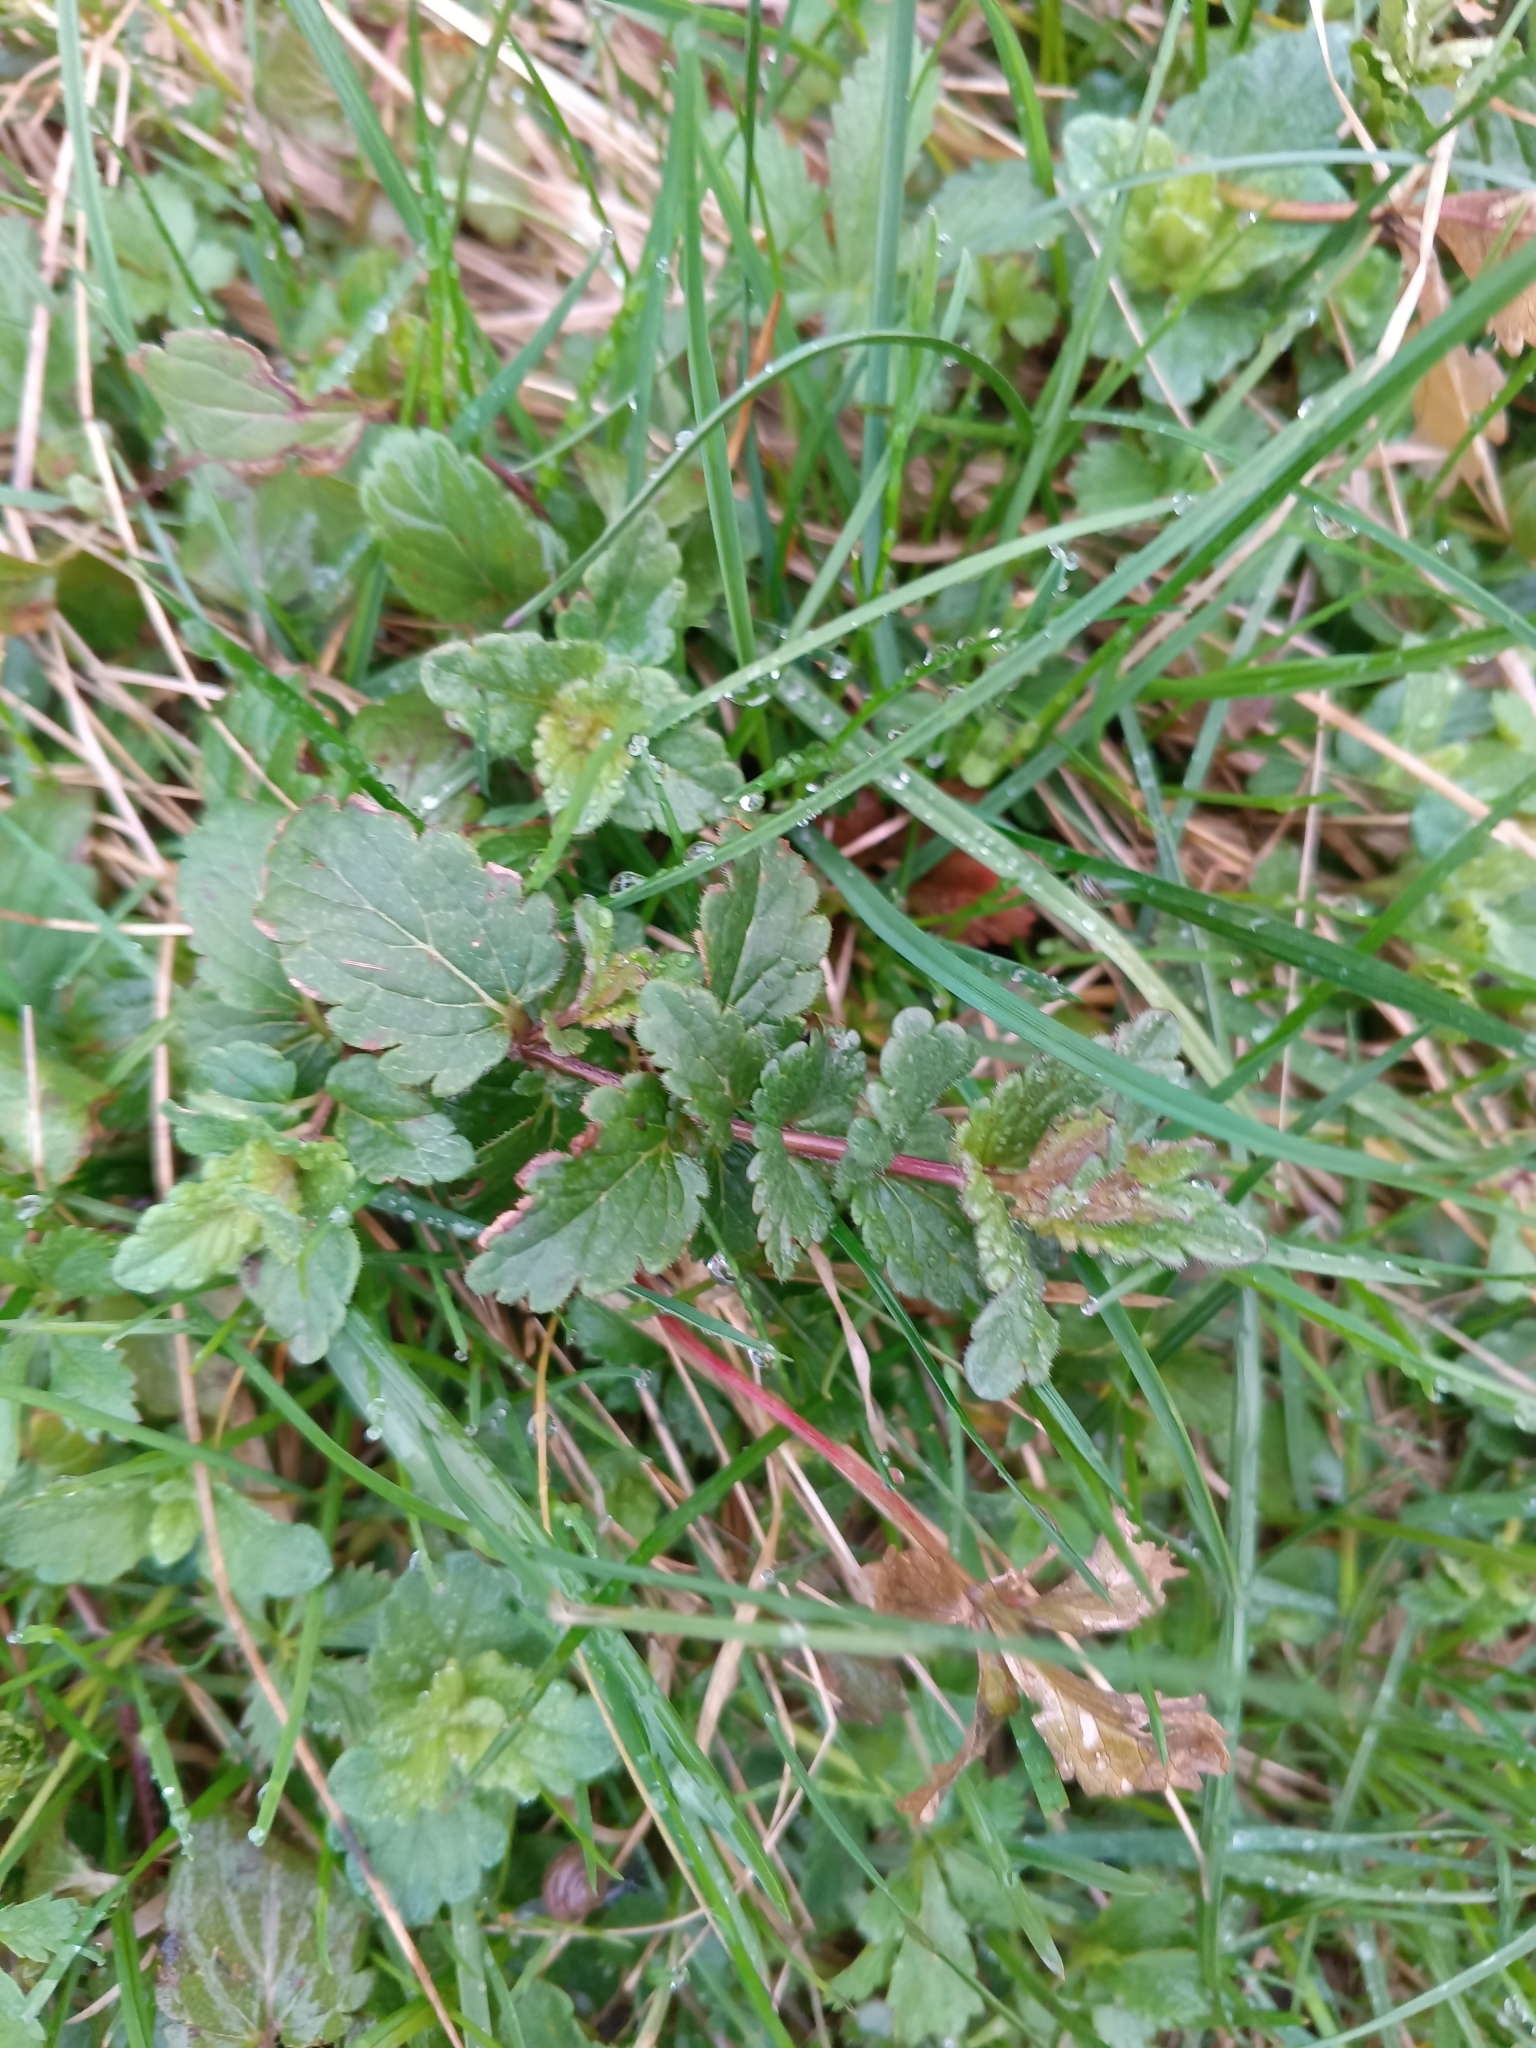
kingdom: Plantae
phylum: Tracheophyta
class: Magnoliopsida
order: Lamiales
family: Plantaginaceae
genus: Veronica
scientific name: Veronica chamaedrys
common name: Germander speedwell
